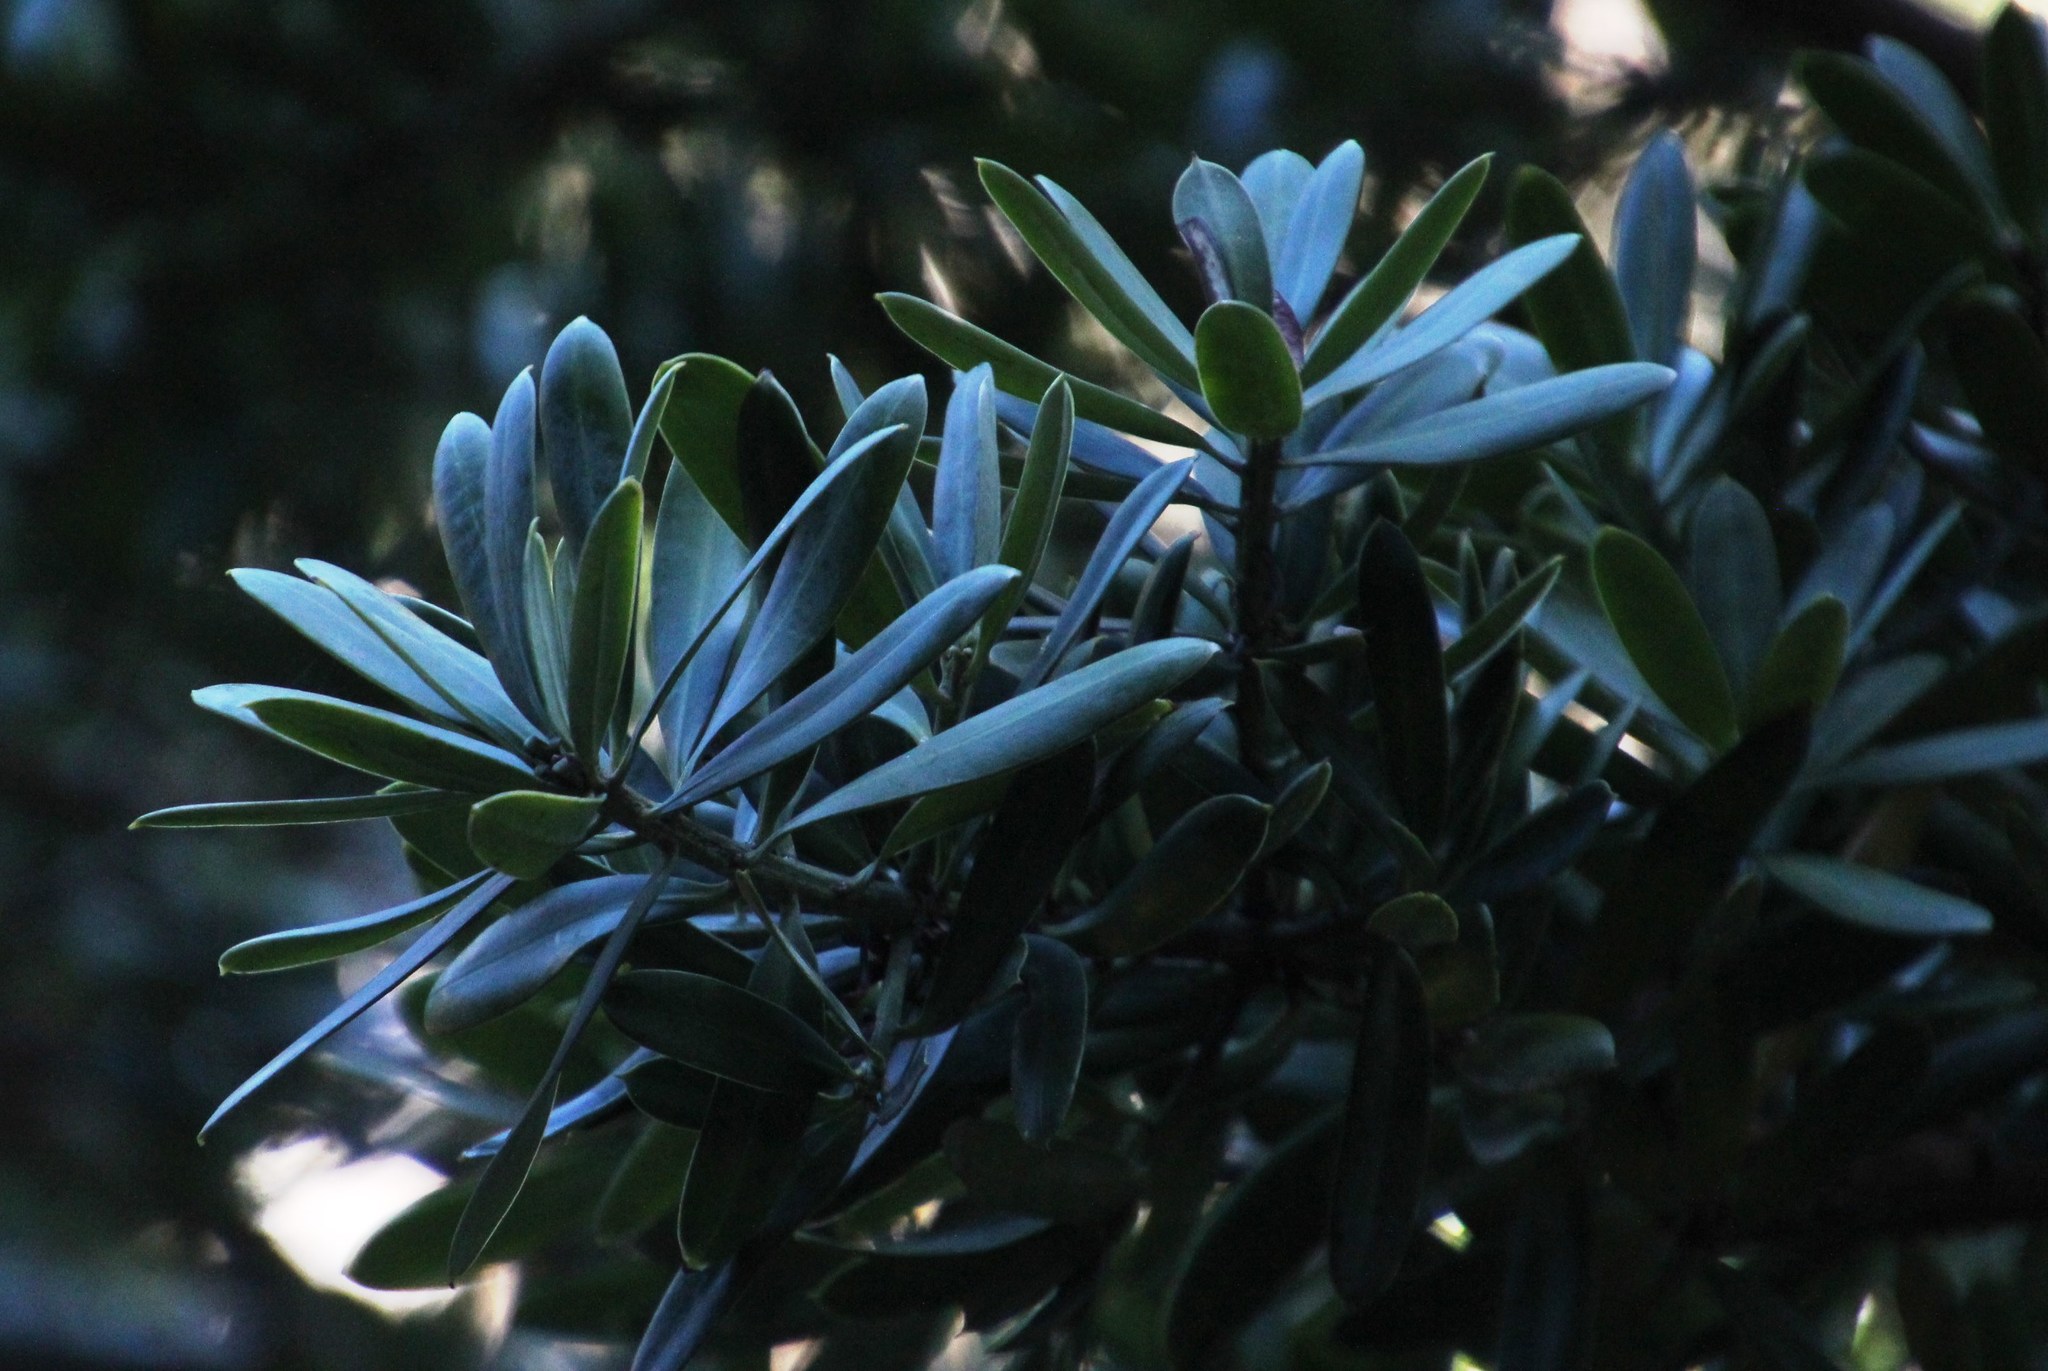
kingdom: Plantae
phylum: Tracheophyta
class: Pinopsida
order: Pinales
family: Podocarpaceae
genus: Podocarpus
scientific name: Podocarpus latifolius
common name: True yellowwood
